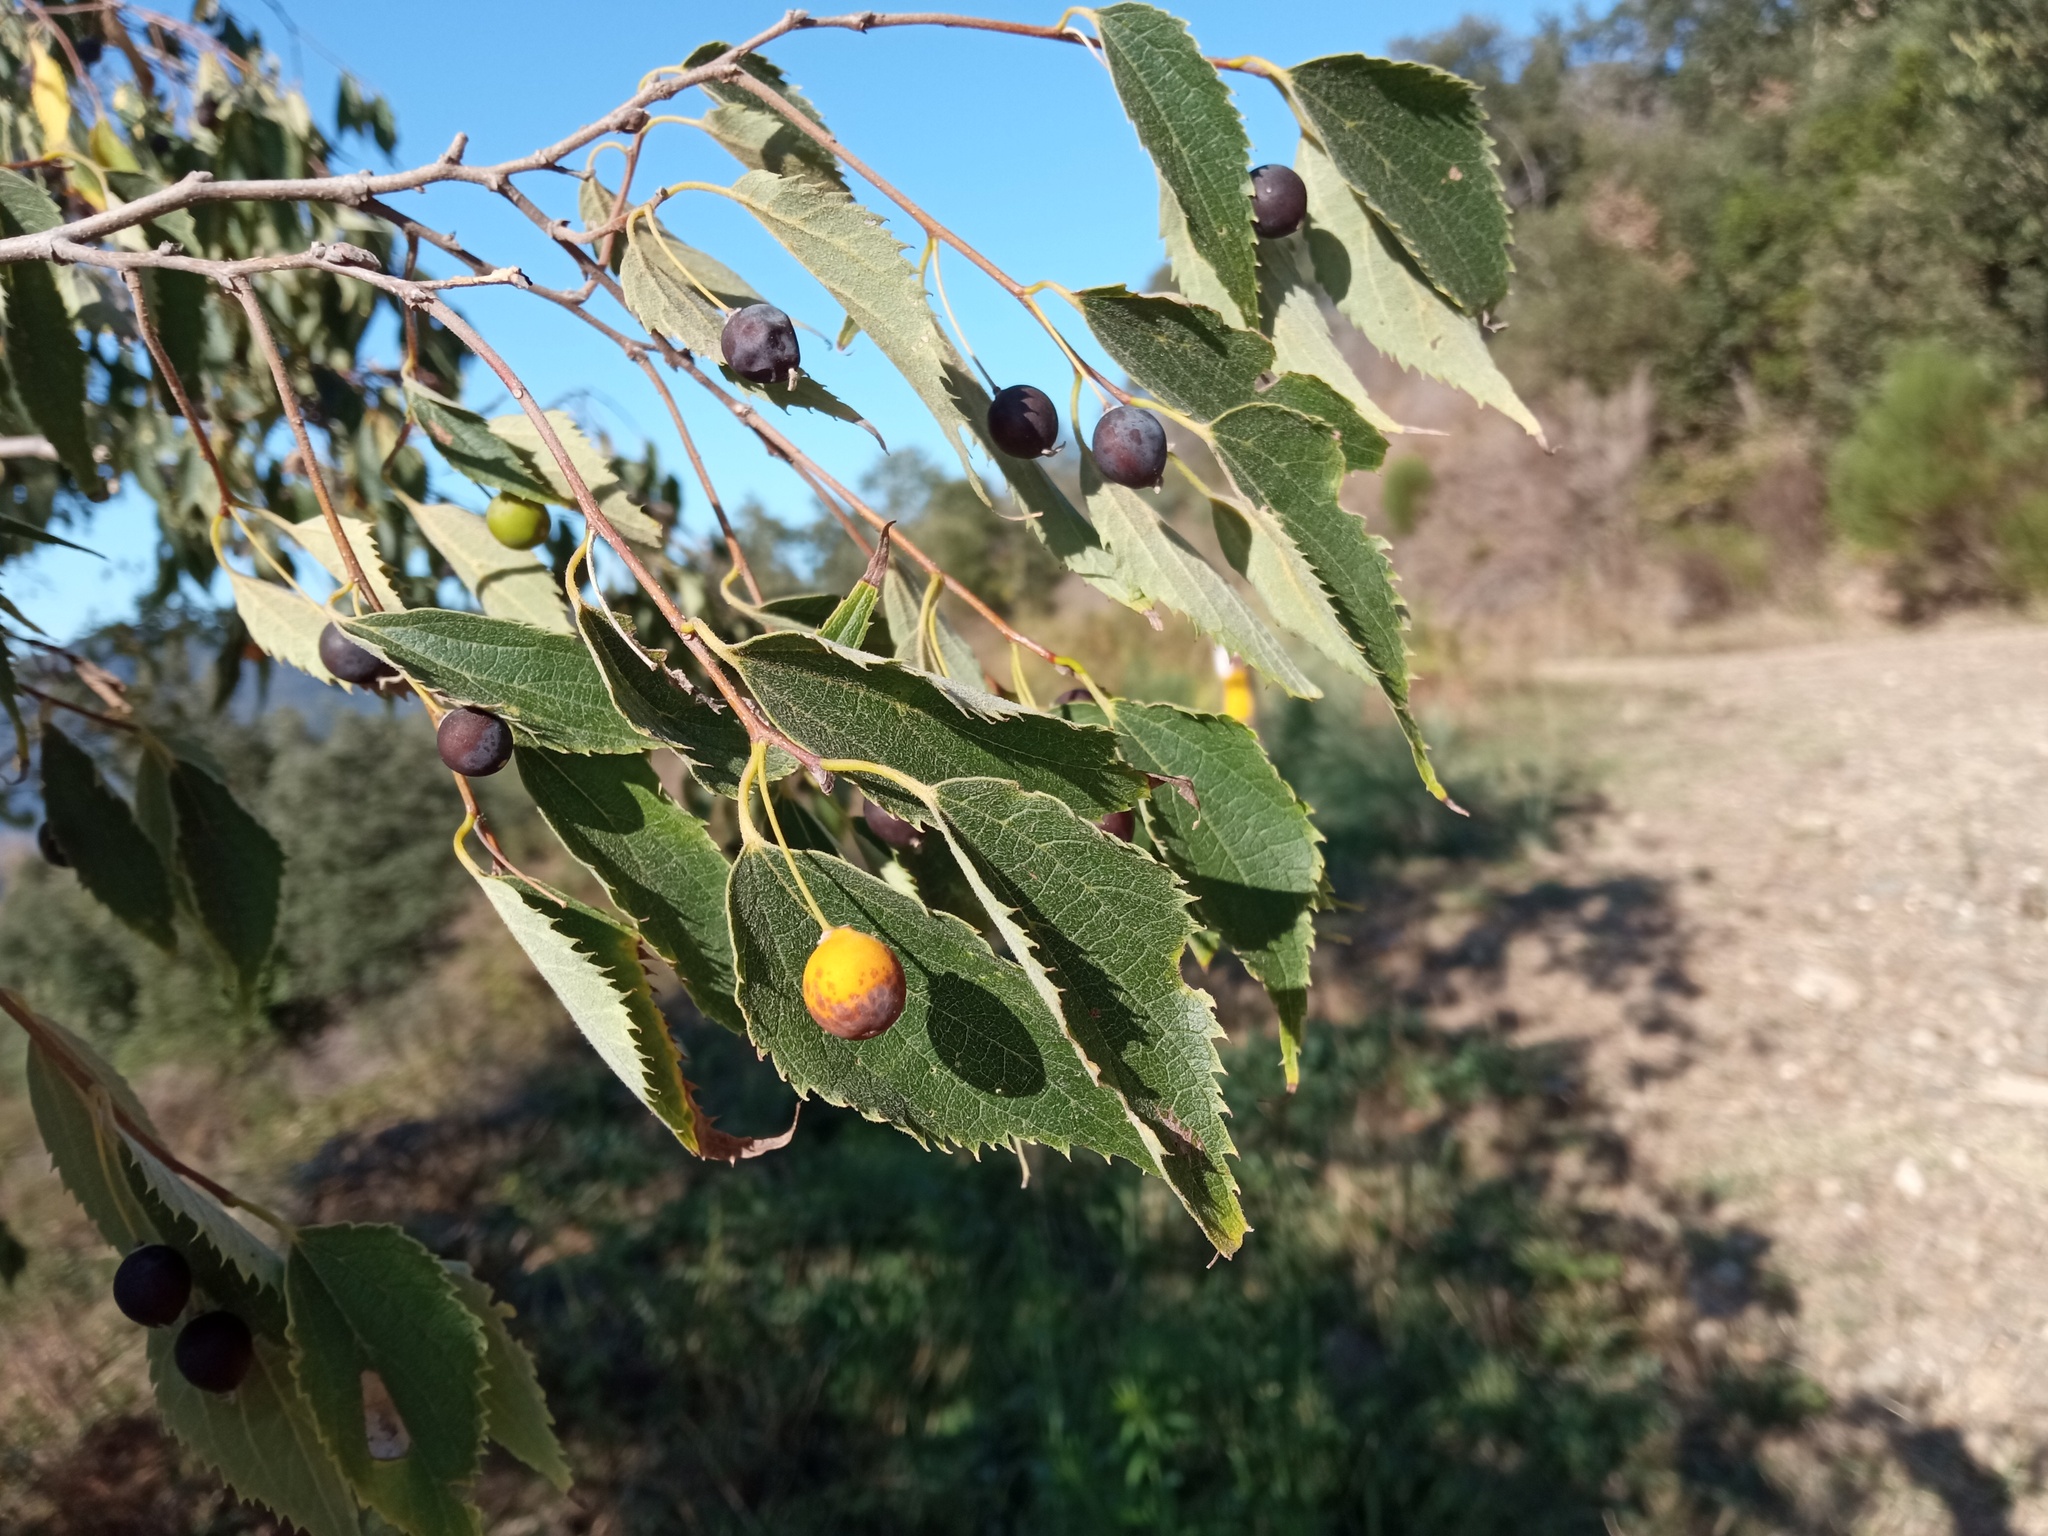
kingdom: Plantae
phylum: Tracheophyta
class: Magnoliopsida
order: Rosales
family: Cannabaceae
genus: Celtis
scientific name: Celtis australis
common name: European hackberry
